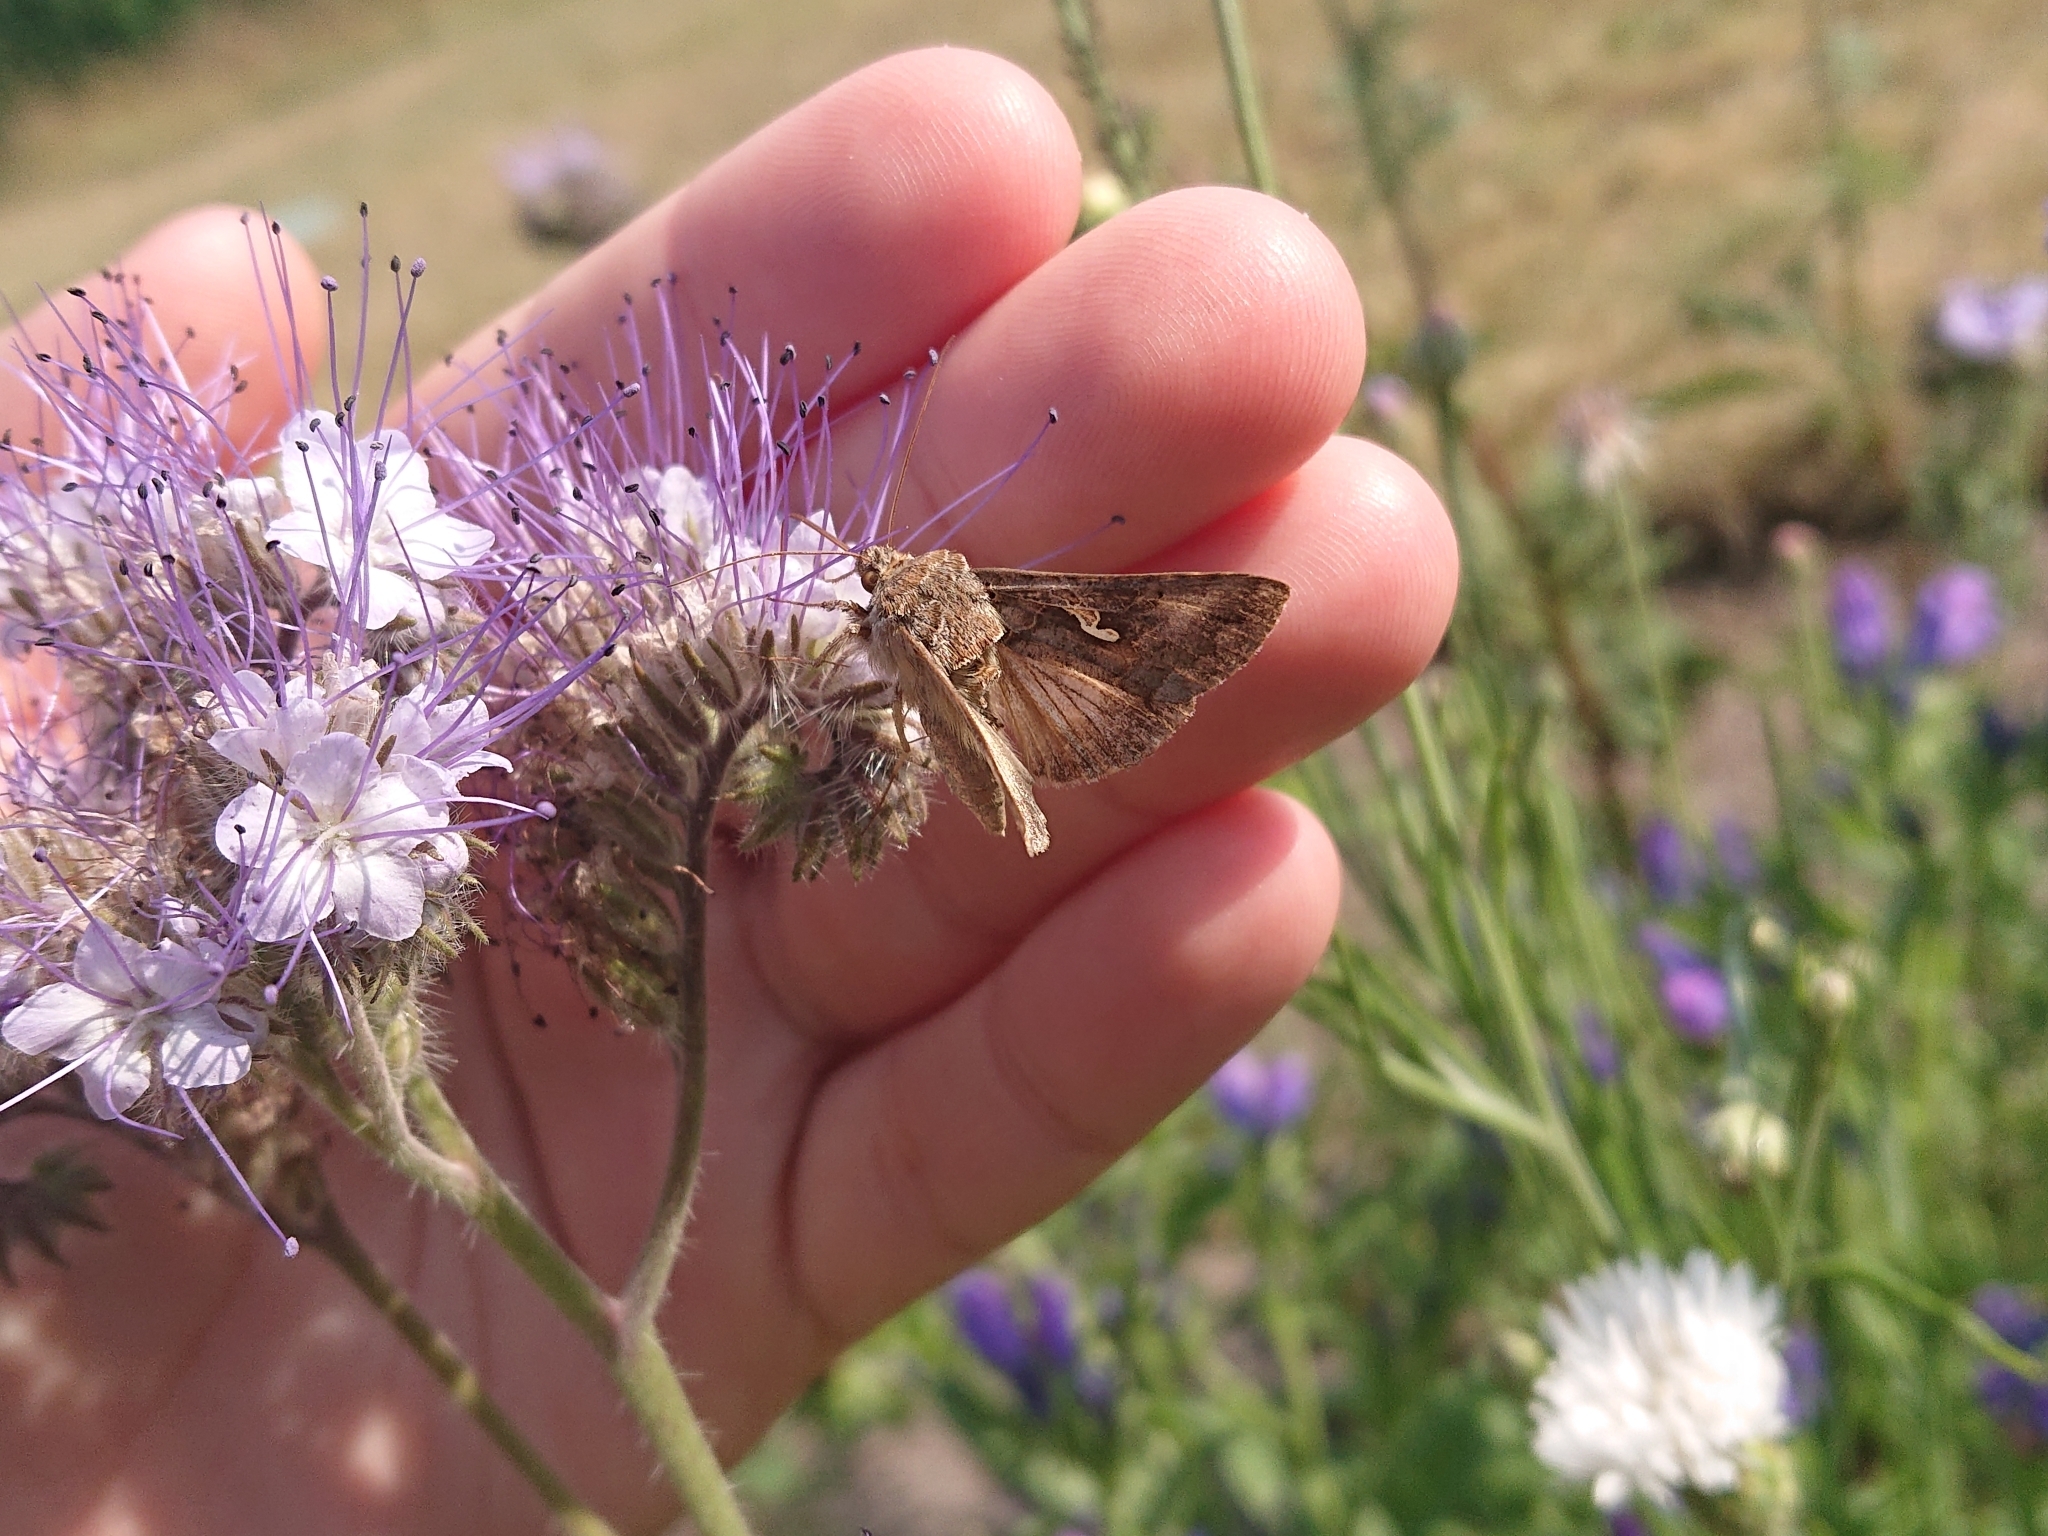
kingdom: Animalia
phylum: Arthropoda
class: Insecta
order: Lepidoptera
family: Noctuidae
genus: Autographa
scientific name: Autographa gamma
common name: Silver y
